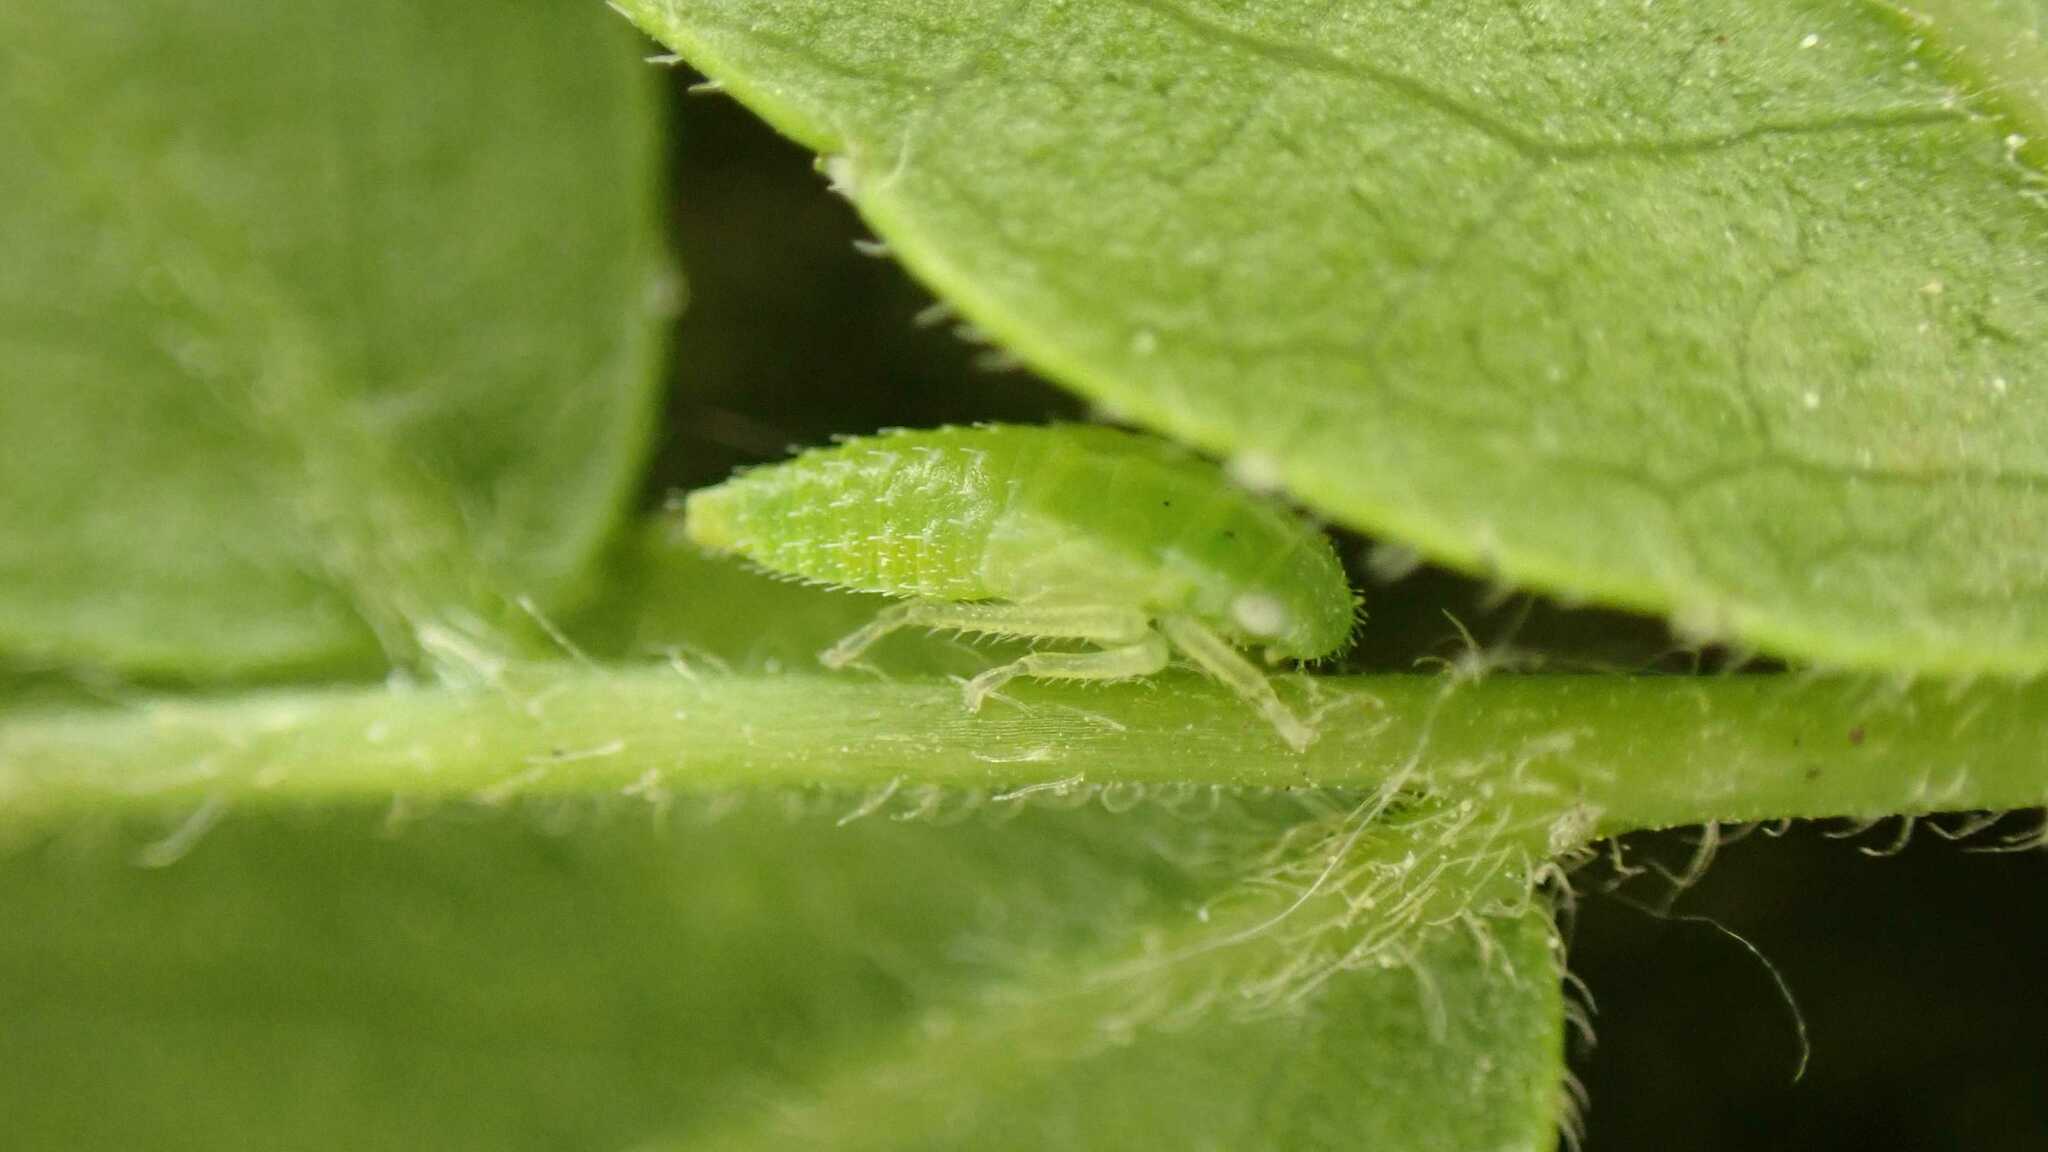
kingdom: Animalia
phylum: Arthropoda
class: Insecta
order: Hemiptera
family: Cicadellidae
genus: Stragania
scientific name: Stragania apicalis
